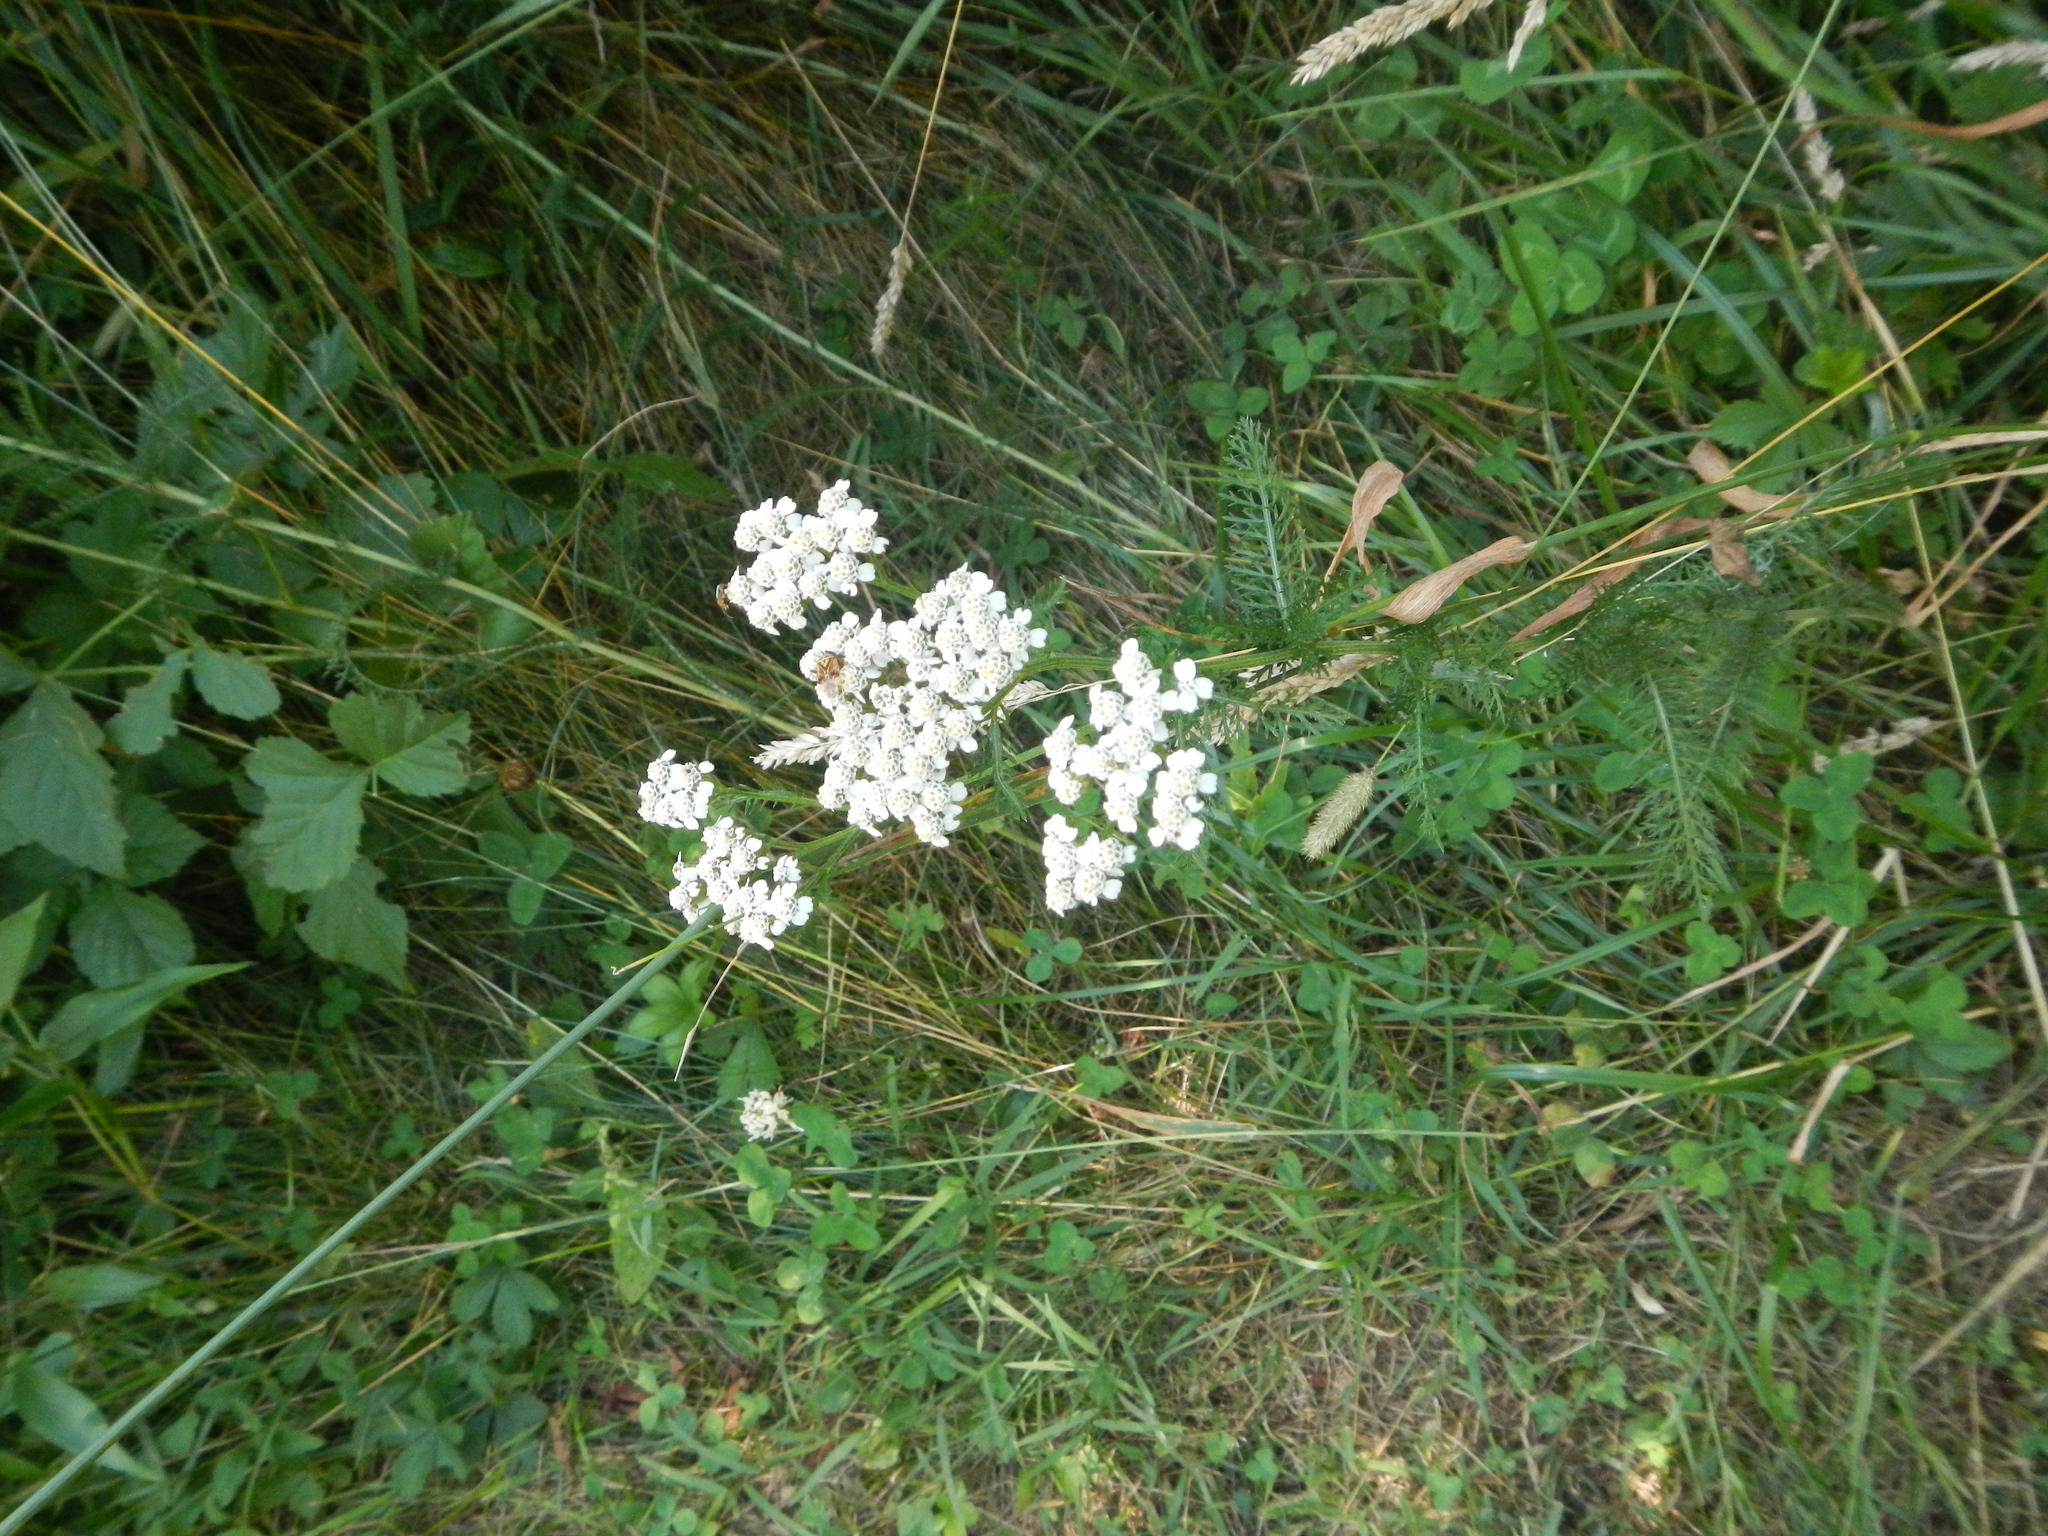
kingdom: Plantae
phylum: Tracheophyta
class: Magnoliopsida
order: Asterales
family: Asteraceae
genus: Achillea
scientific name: Achillea millefolium
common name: Yarrow
